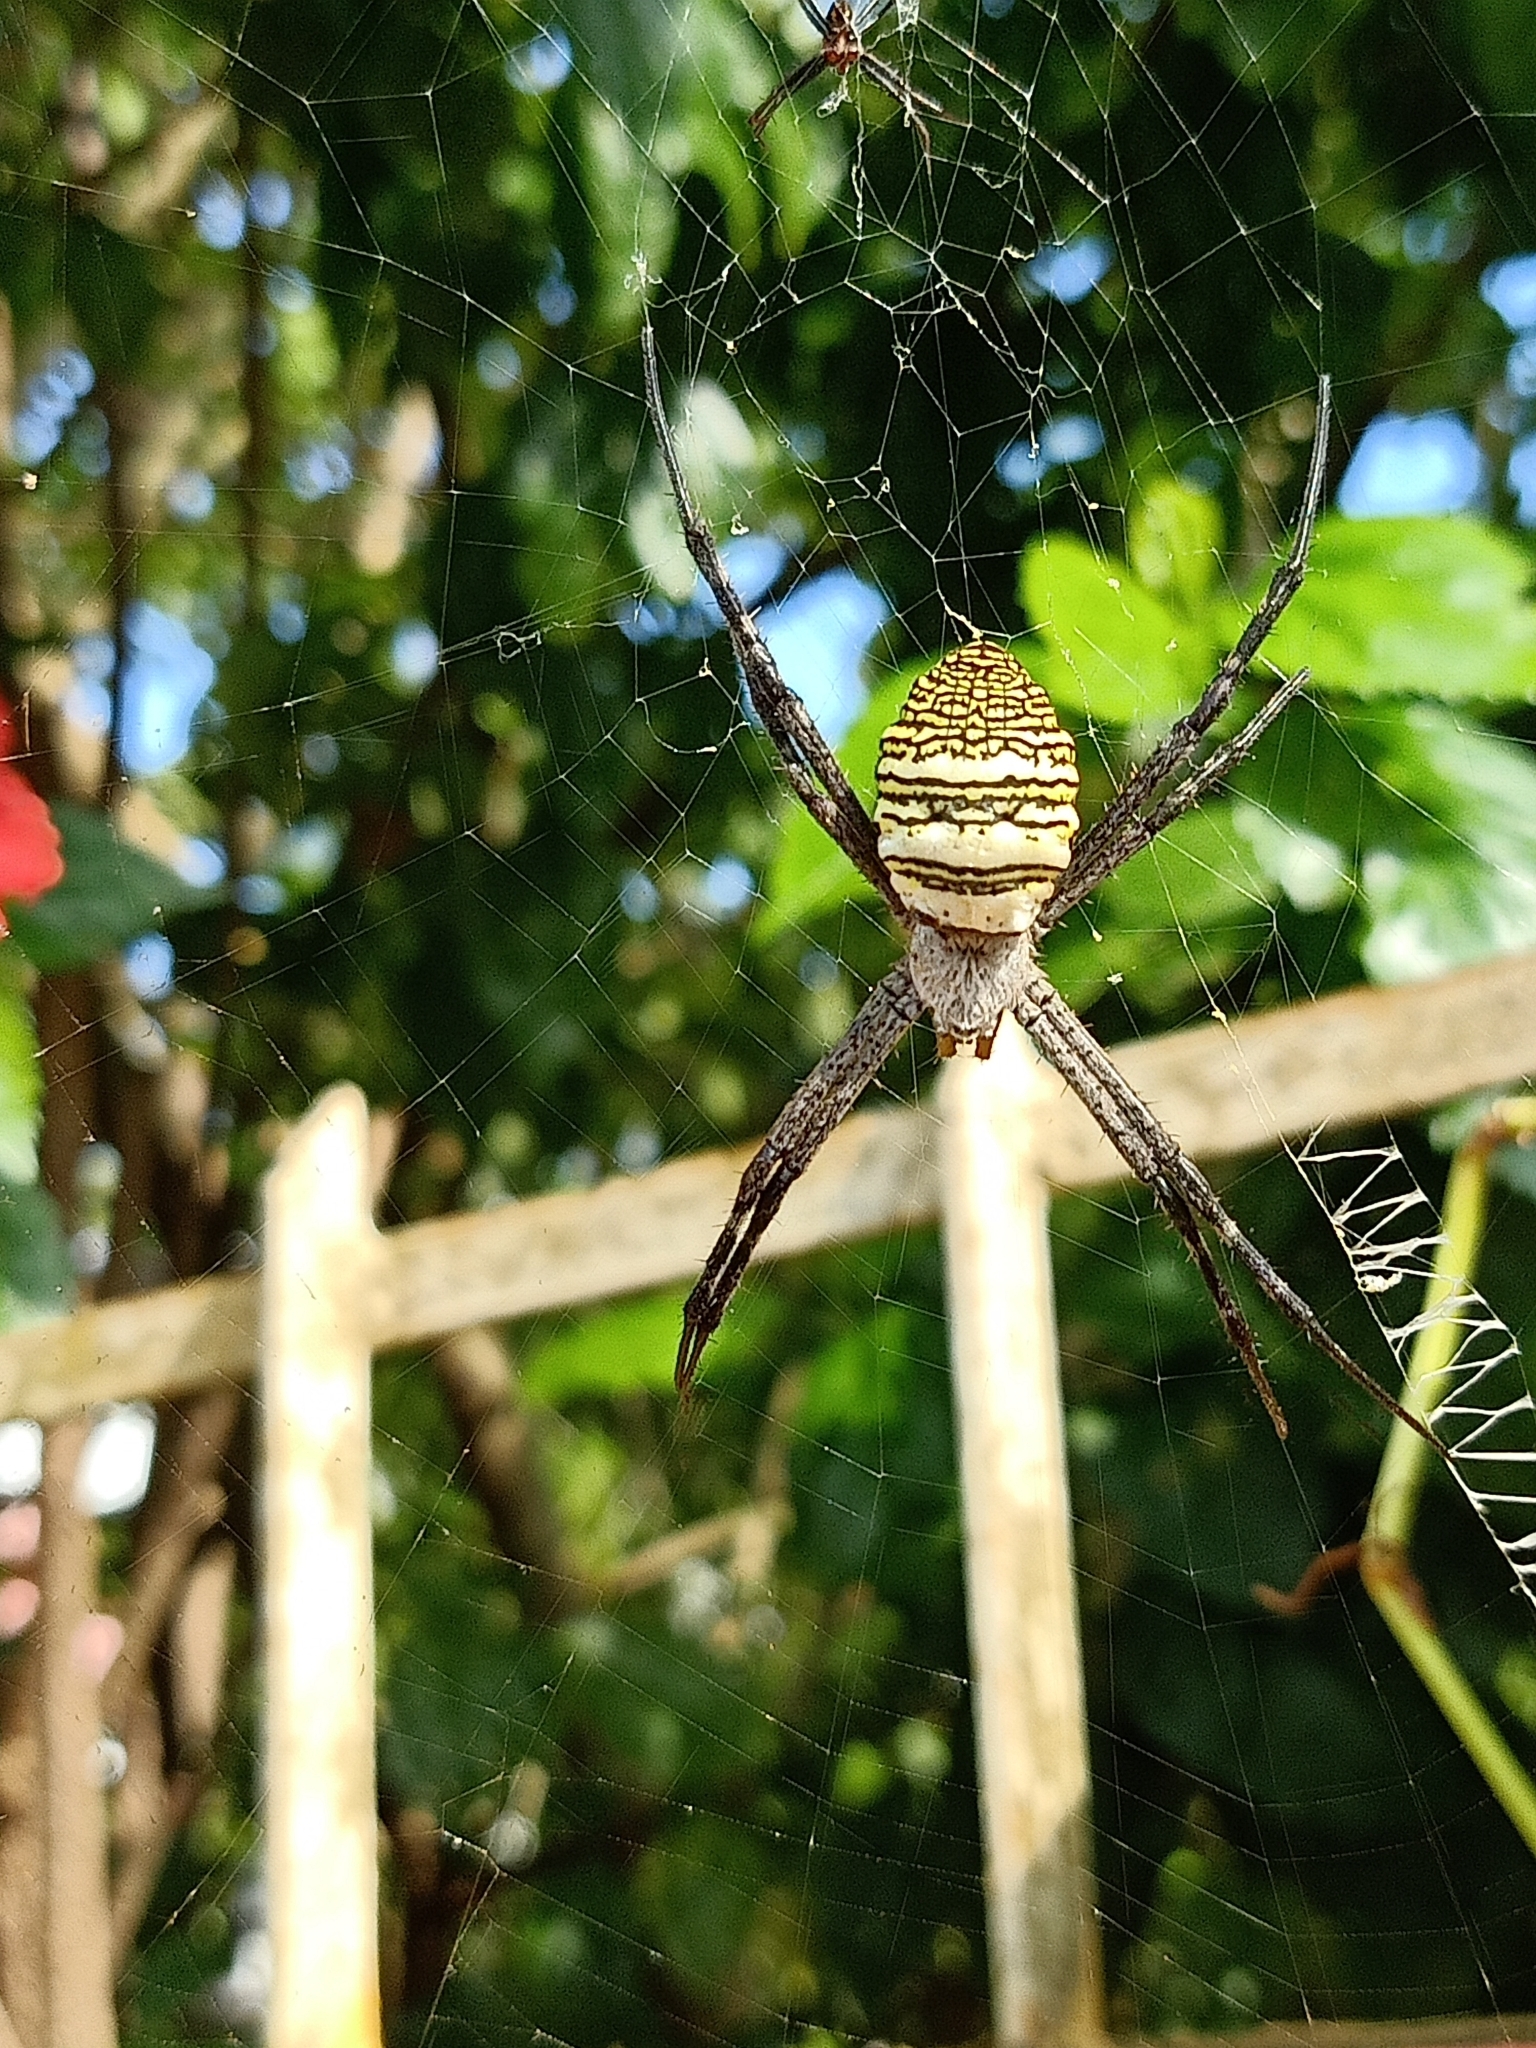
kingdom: Animalia
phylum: Arthropoda
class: Arachnida
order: Araneae
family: Araneidae
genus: Argiope
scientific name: Argiope aemula
